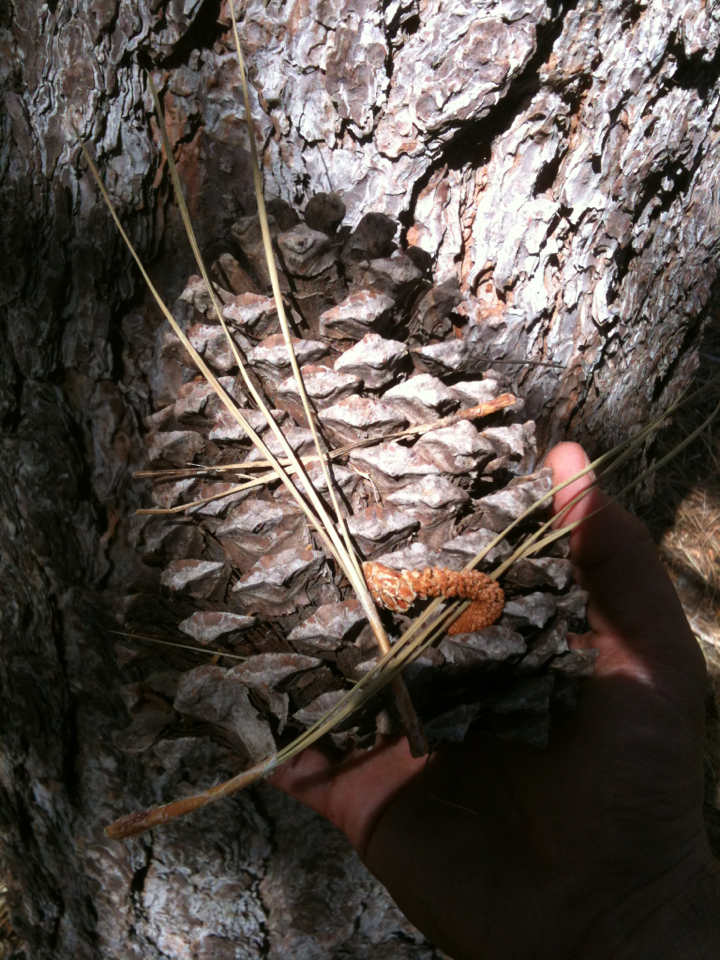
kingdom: Plantae
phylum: Tracheophyta
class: Pinopsida
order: Pinales
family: Pinaceae
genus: Pinus
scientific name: Pinus jeffreyi
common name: Jeffrey pine
